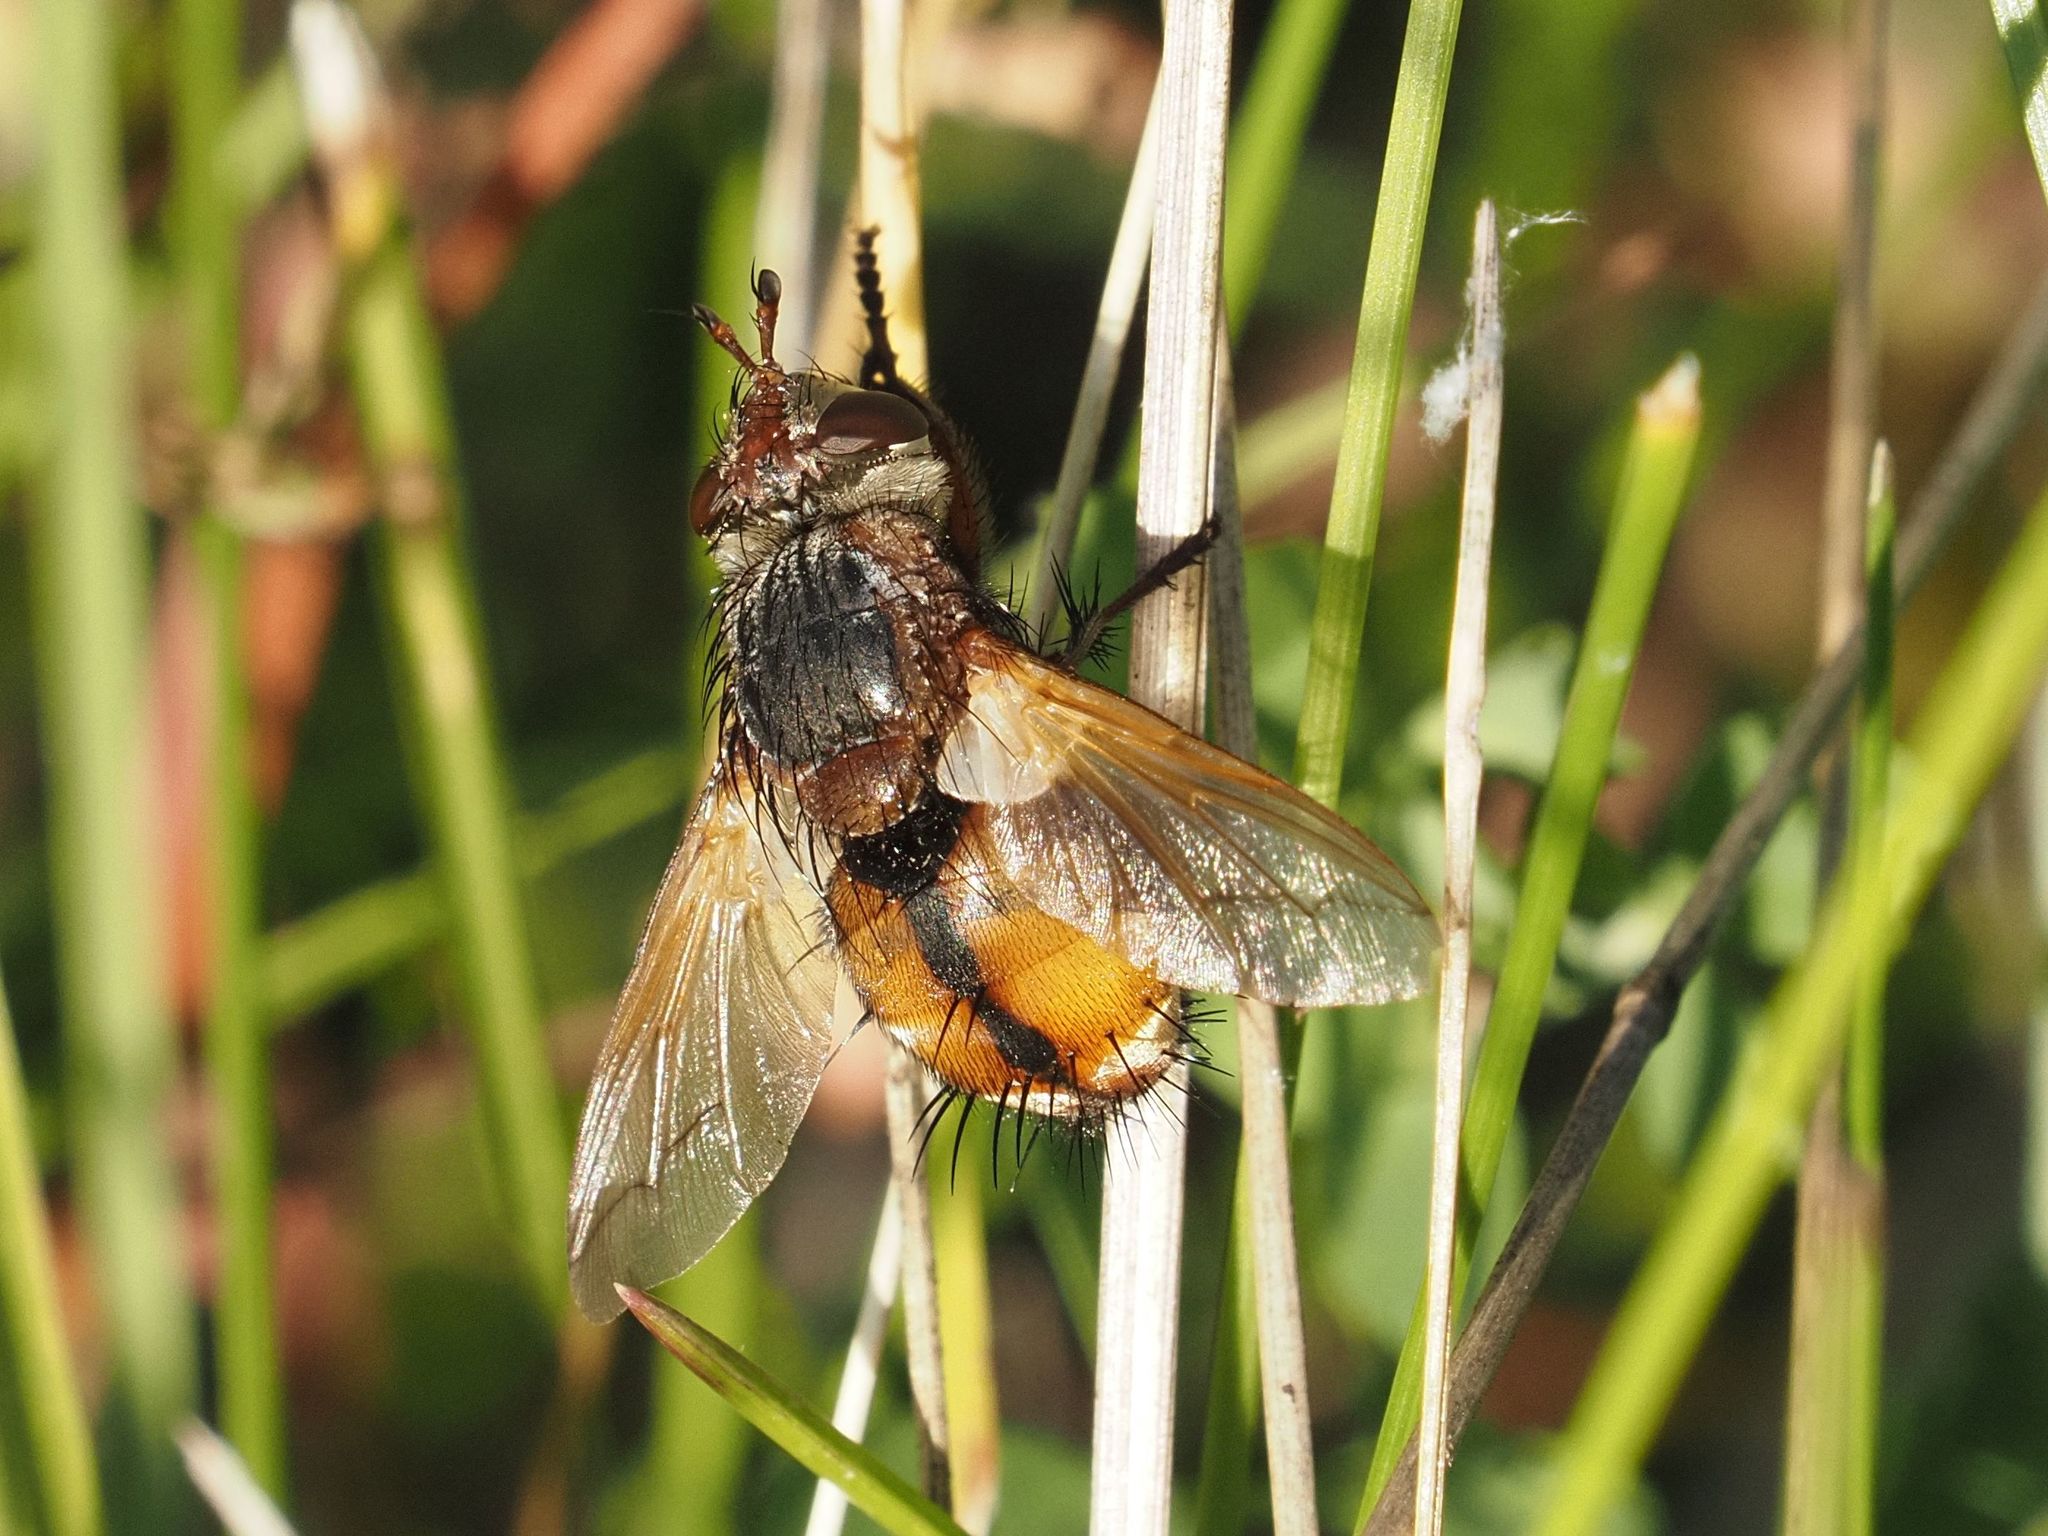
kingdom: Animalia
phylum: Arthropoda
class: Insecta
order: Diptera
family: Tachinidae
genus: Tachina
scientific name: Tachina fera
